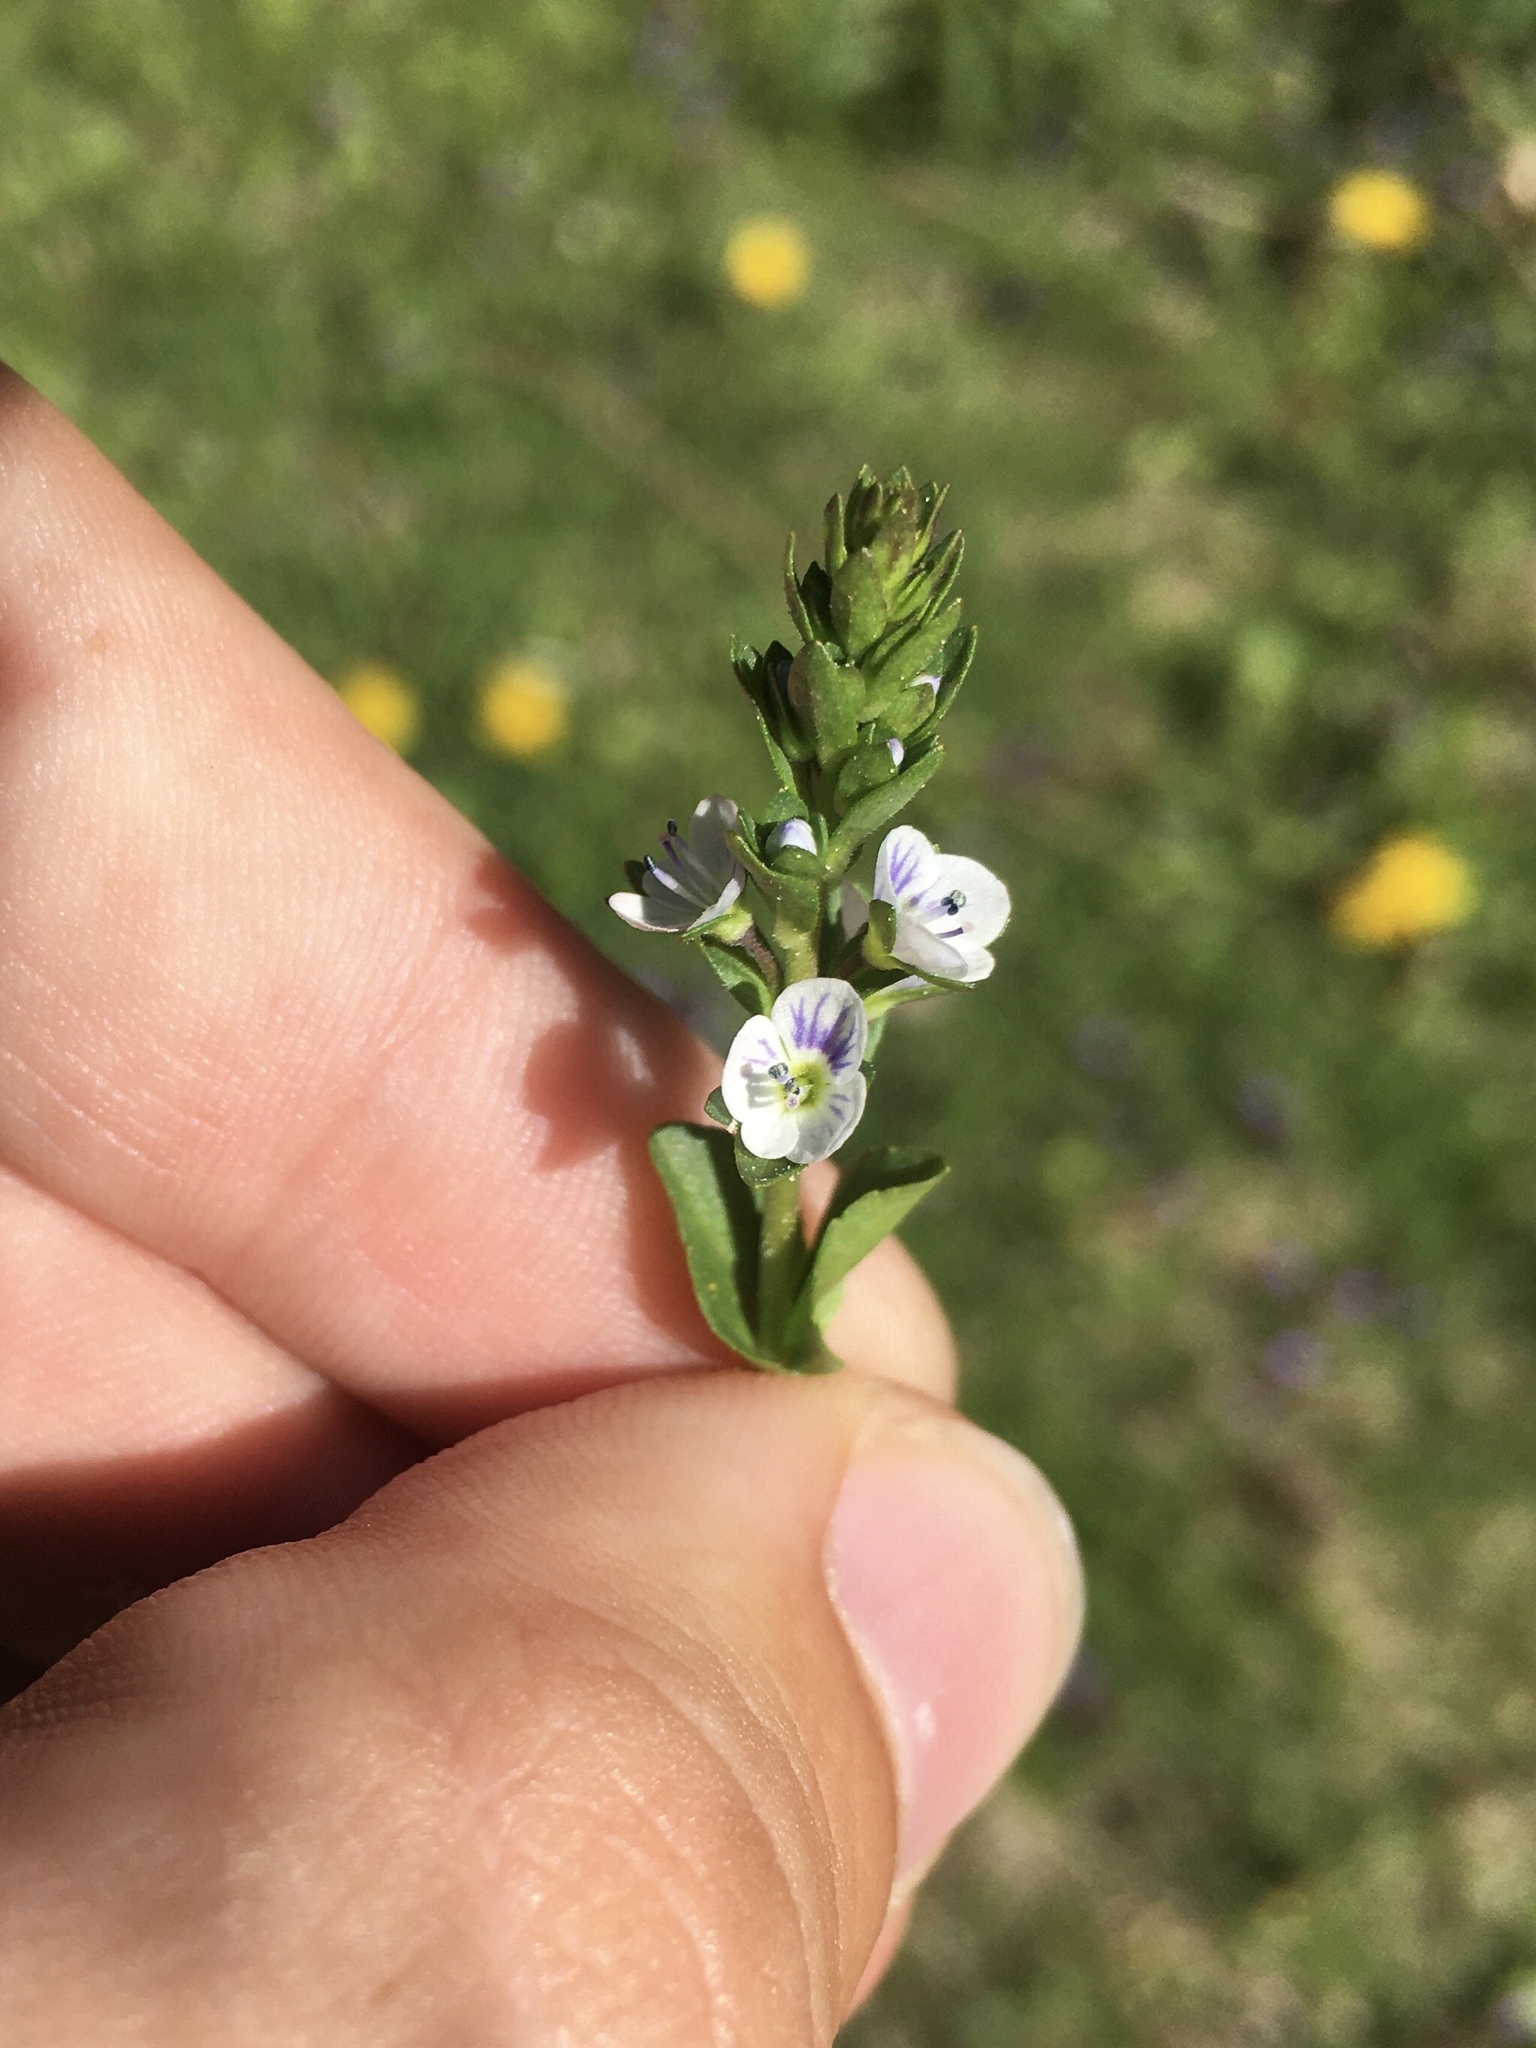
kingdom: Plantae
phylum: Tracheophyta
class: Magnoliopsida
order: Lamiales
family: Plantaginaceae
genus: Veronica
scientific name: Veronica serpyllifolia
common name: Thyme-leaved speedwell
